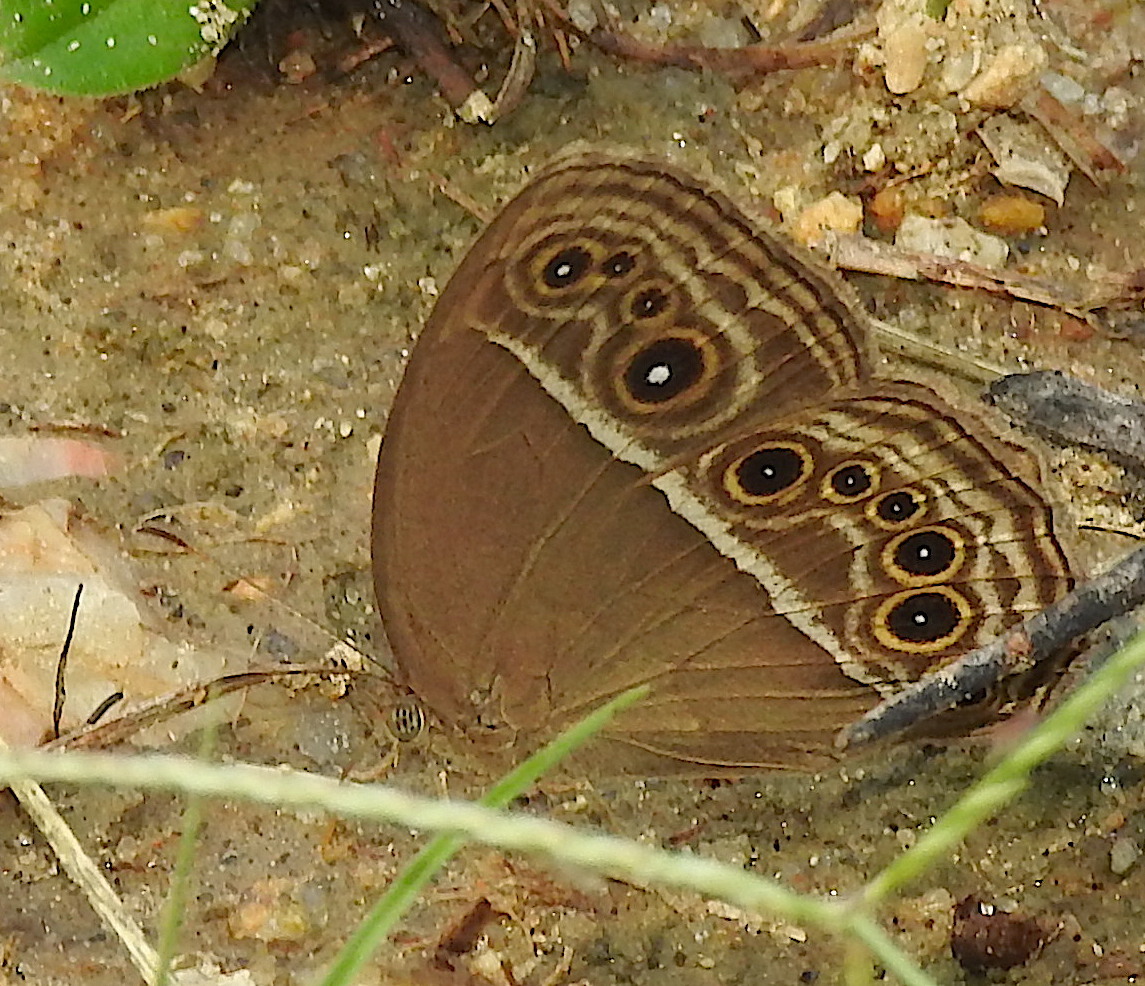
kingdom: Animalia
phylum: Arthropoda
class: Insecta
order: Lepidoptera
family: Nymphalidae
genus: Mycalesis
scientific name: Mycalesis perseus
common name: Dingy bushbrown
